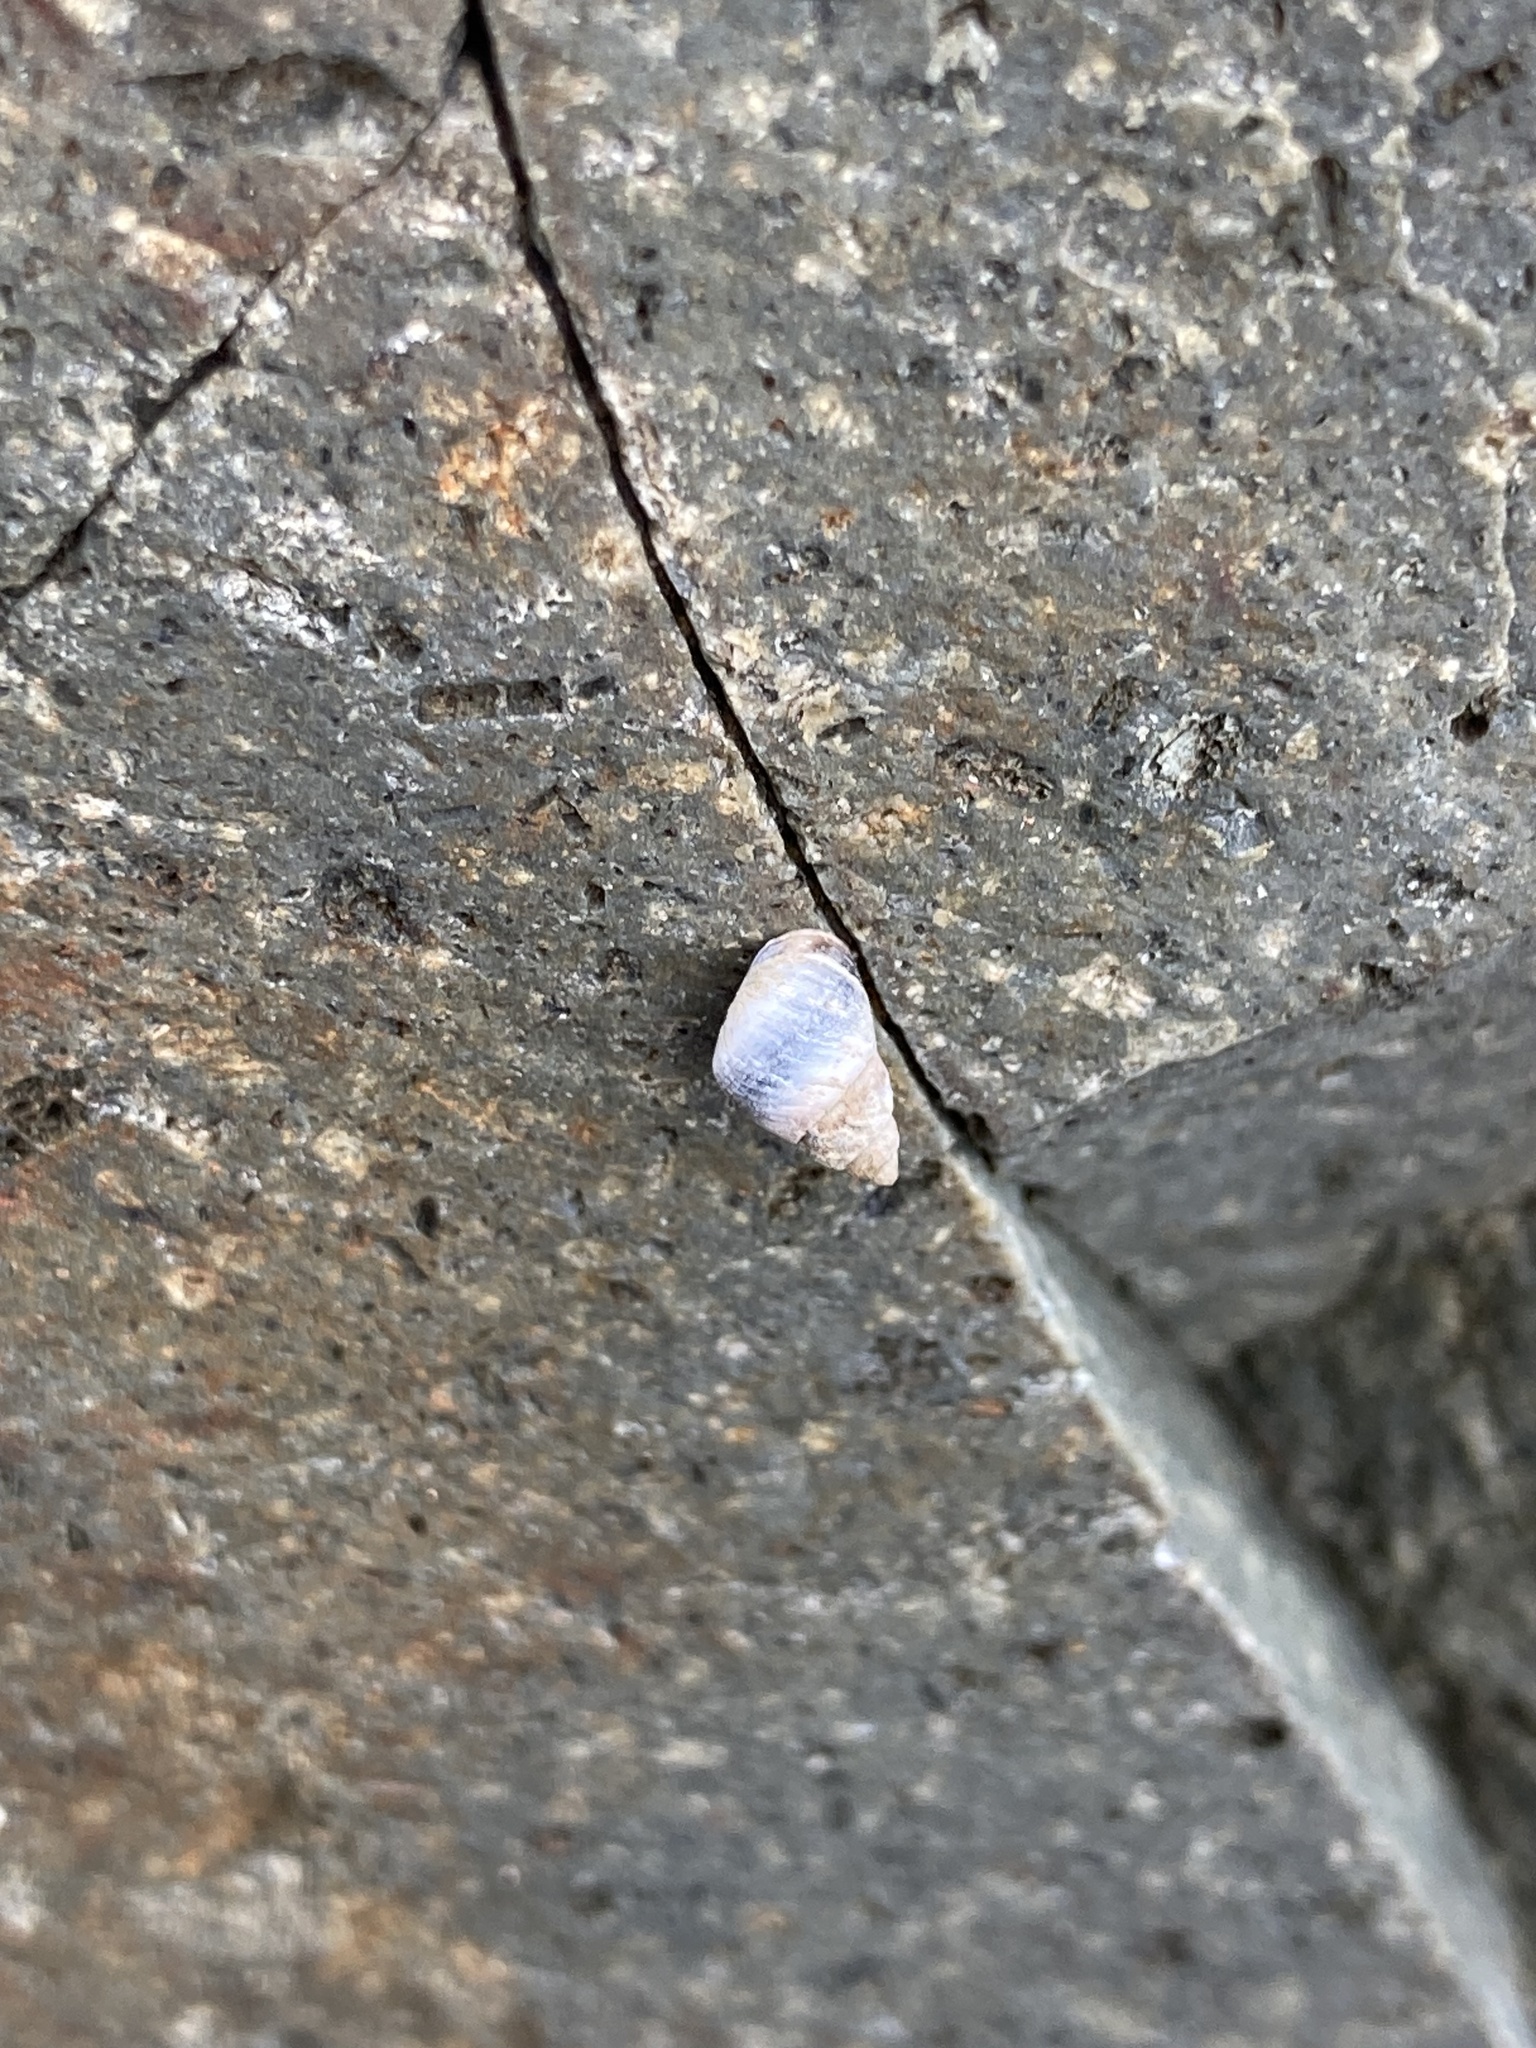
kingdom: Animalia
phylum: Mollusca
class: Gastropoda
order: Littorinimorpha
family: Littorinidae
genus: Austrolittorina
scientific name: Austrolittorina antipodum
